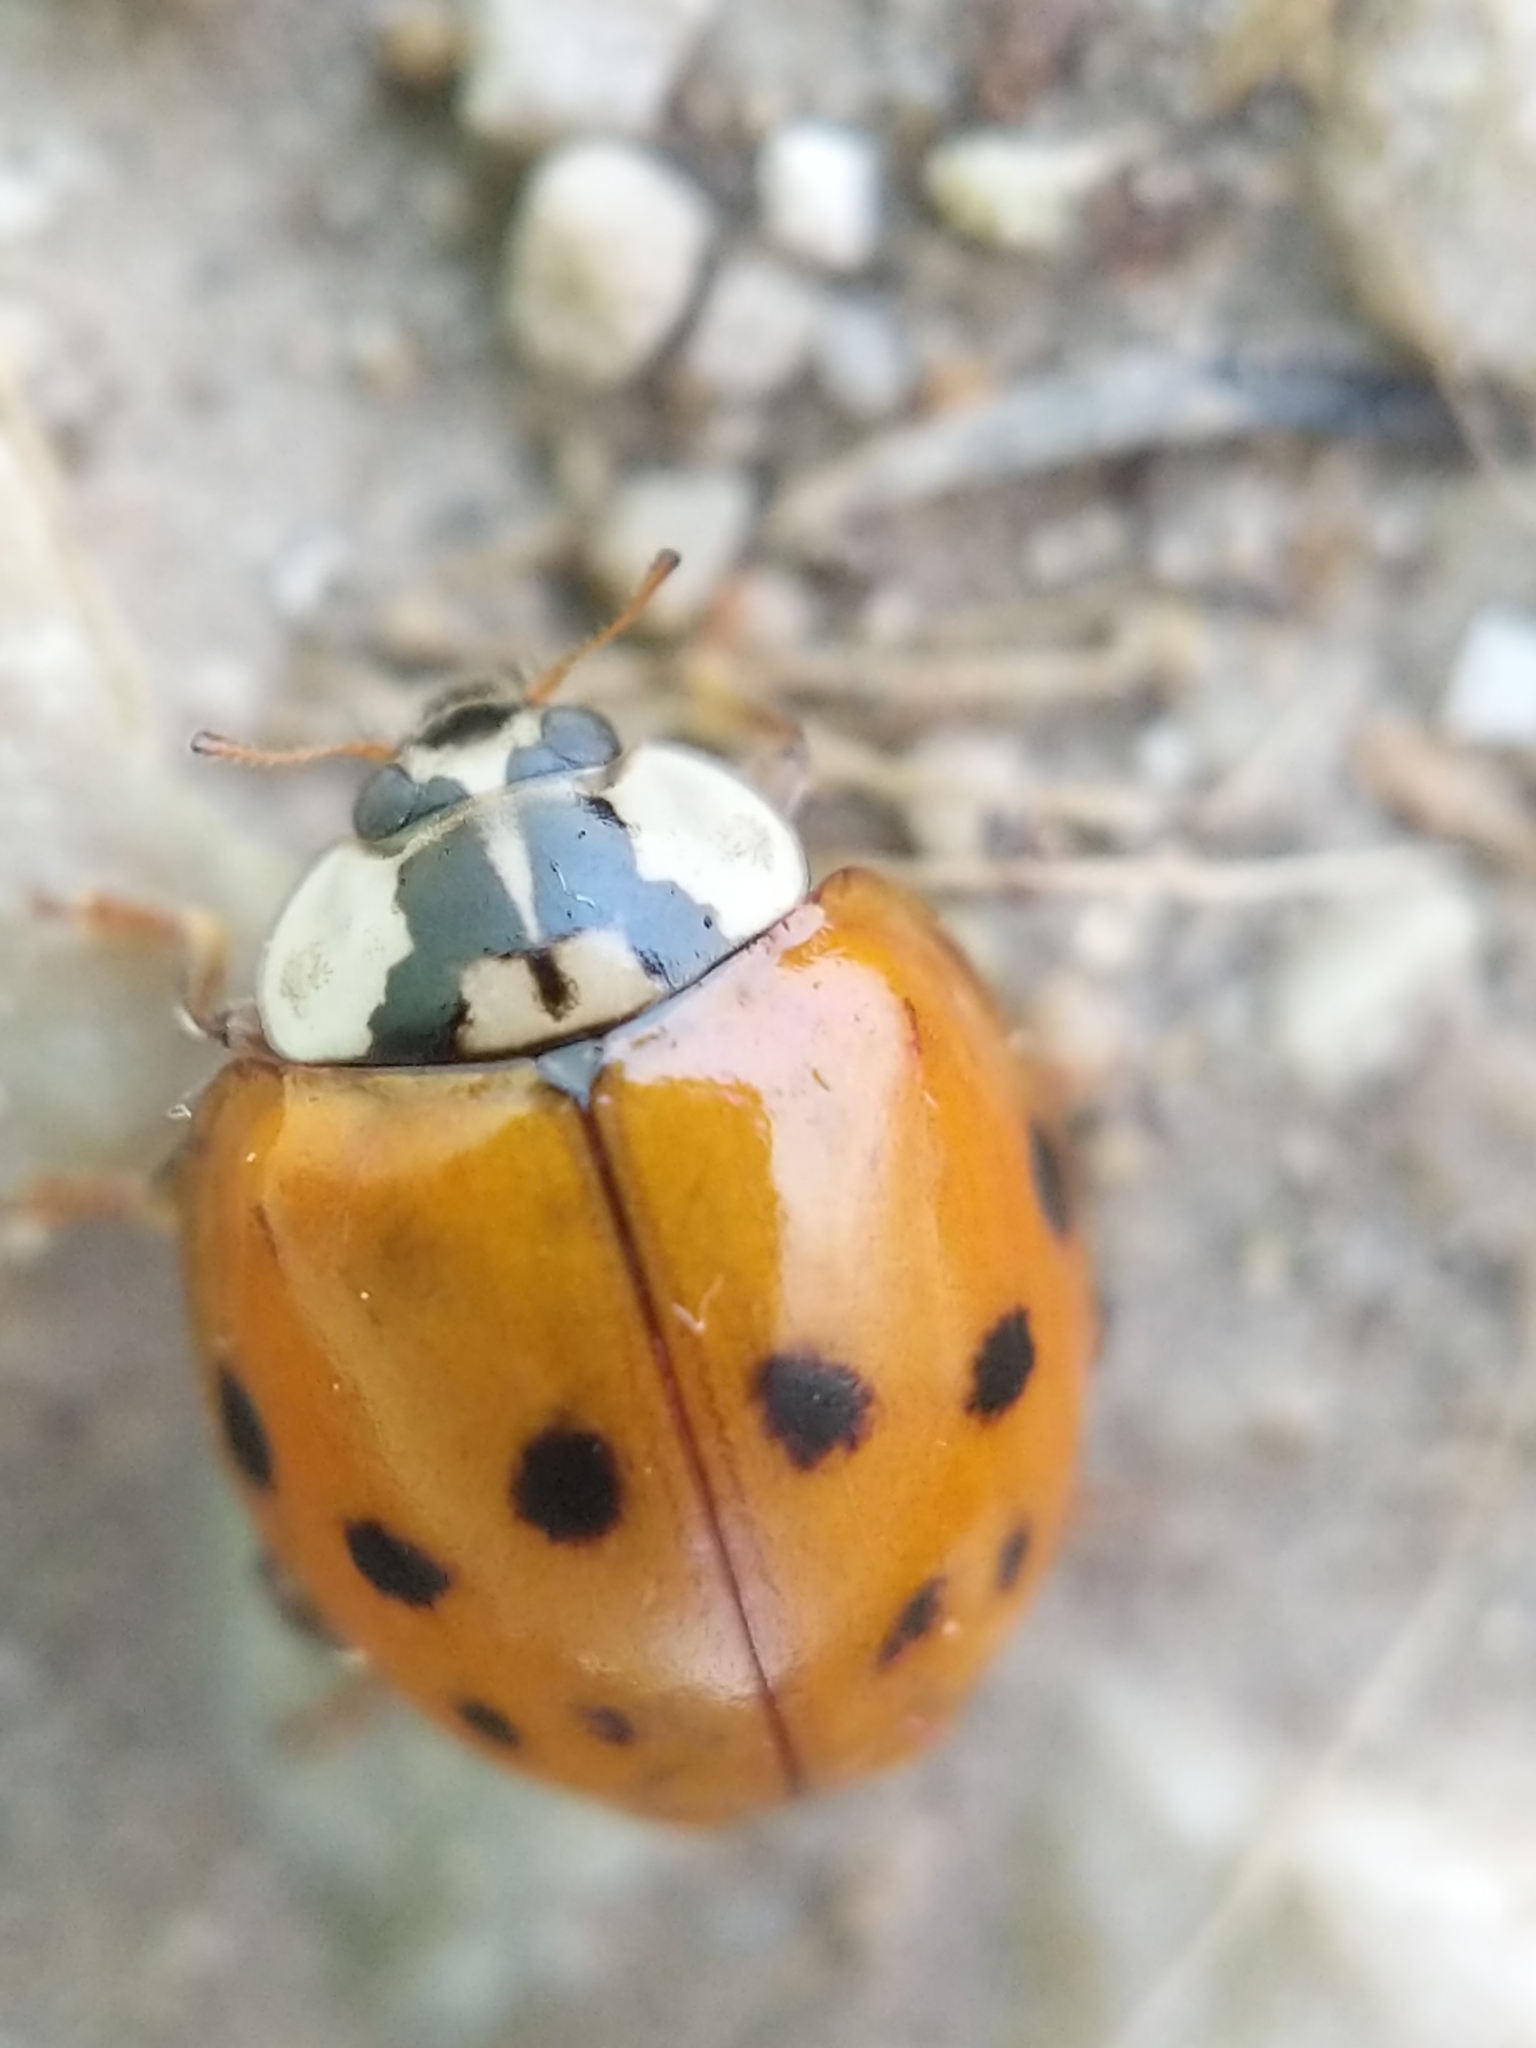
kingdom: Animalia
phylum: Arthropoda
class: Insecta
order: Coleoptera
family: Coccinellidae
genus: Harmonia
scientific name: Harmonia axyridis
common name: Harlequin ladybird
